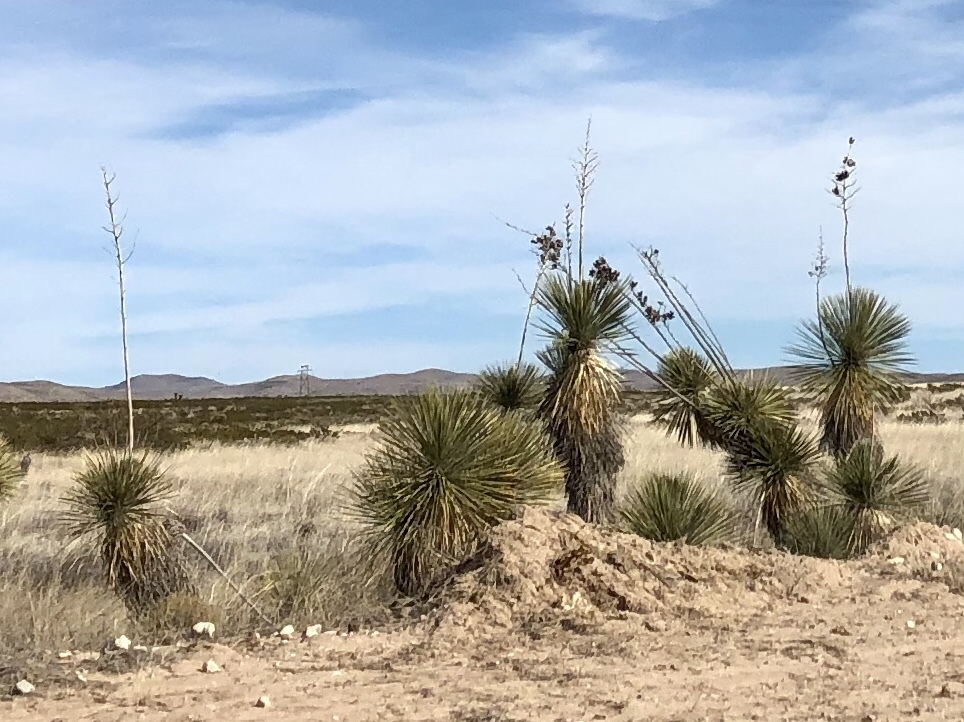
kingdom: Plantae
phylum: Tracheophyta
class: Liliopsida
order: Asparagales
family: Asparagaceae
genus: Yucca
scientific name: Yucca elata
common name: Palmella
